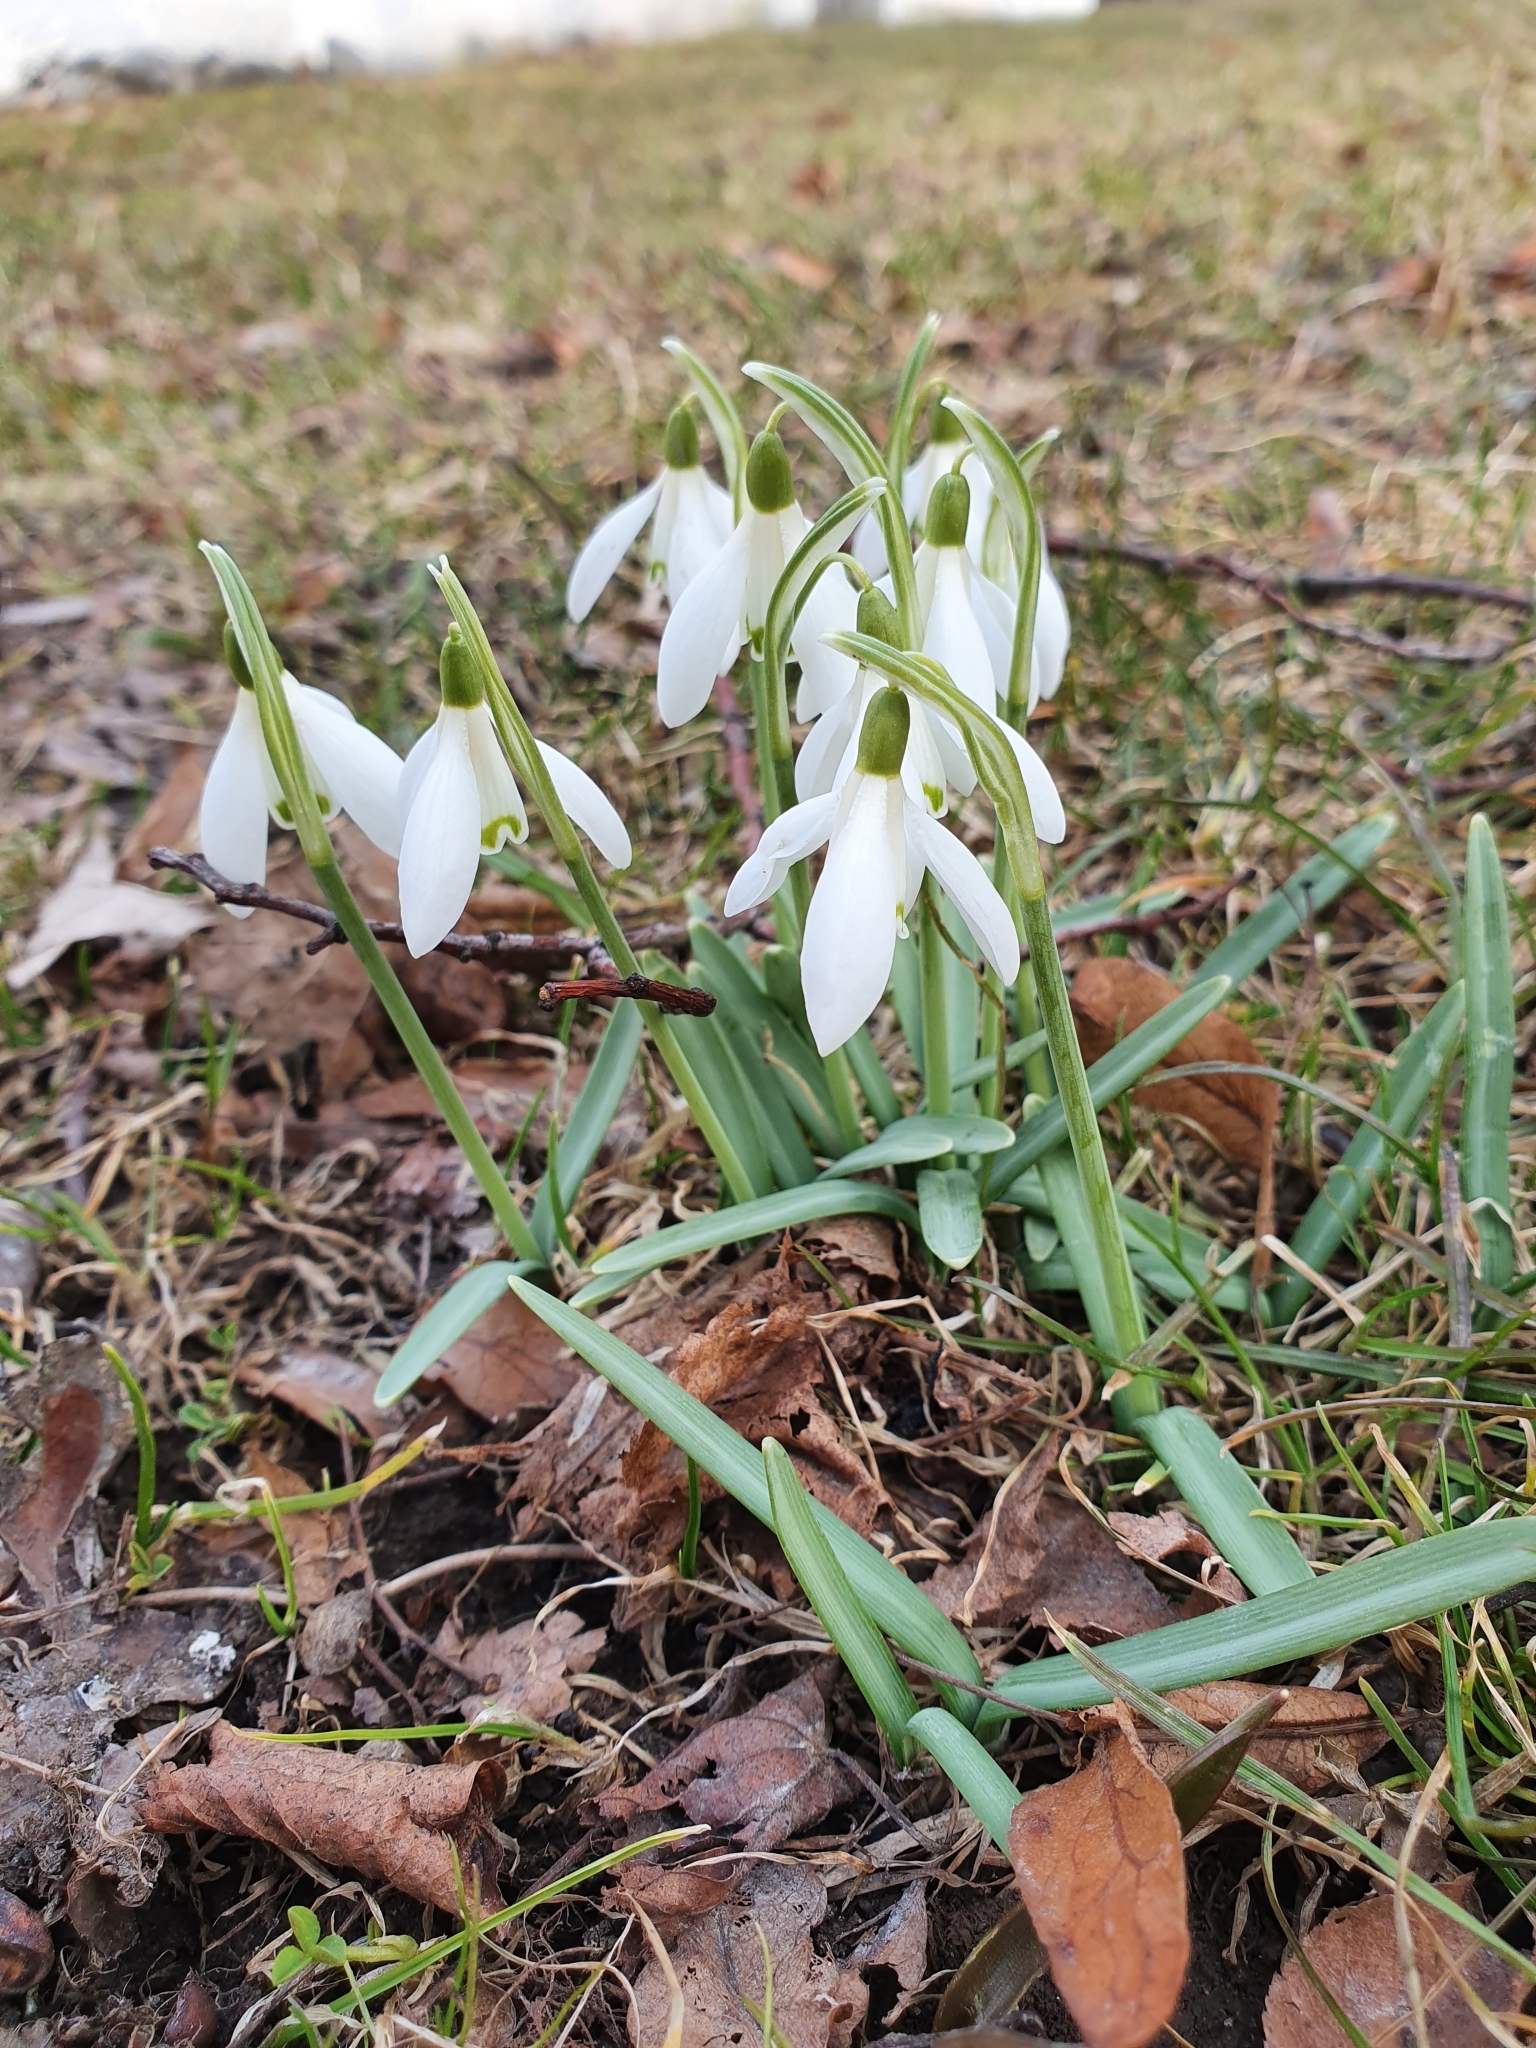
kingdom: Plantae
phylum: Tracheophyta
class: Liliopsida
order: Asparagales
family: Amaryllidaceae
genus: Galanthus
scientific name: Galanthus nivalis
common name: Snowdrop
